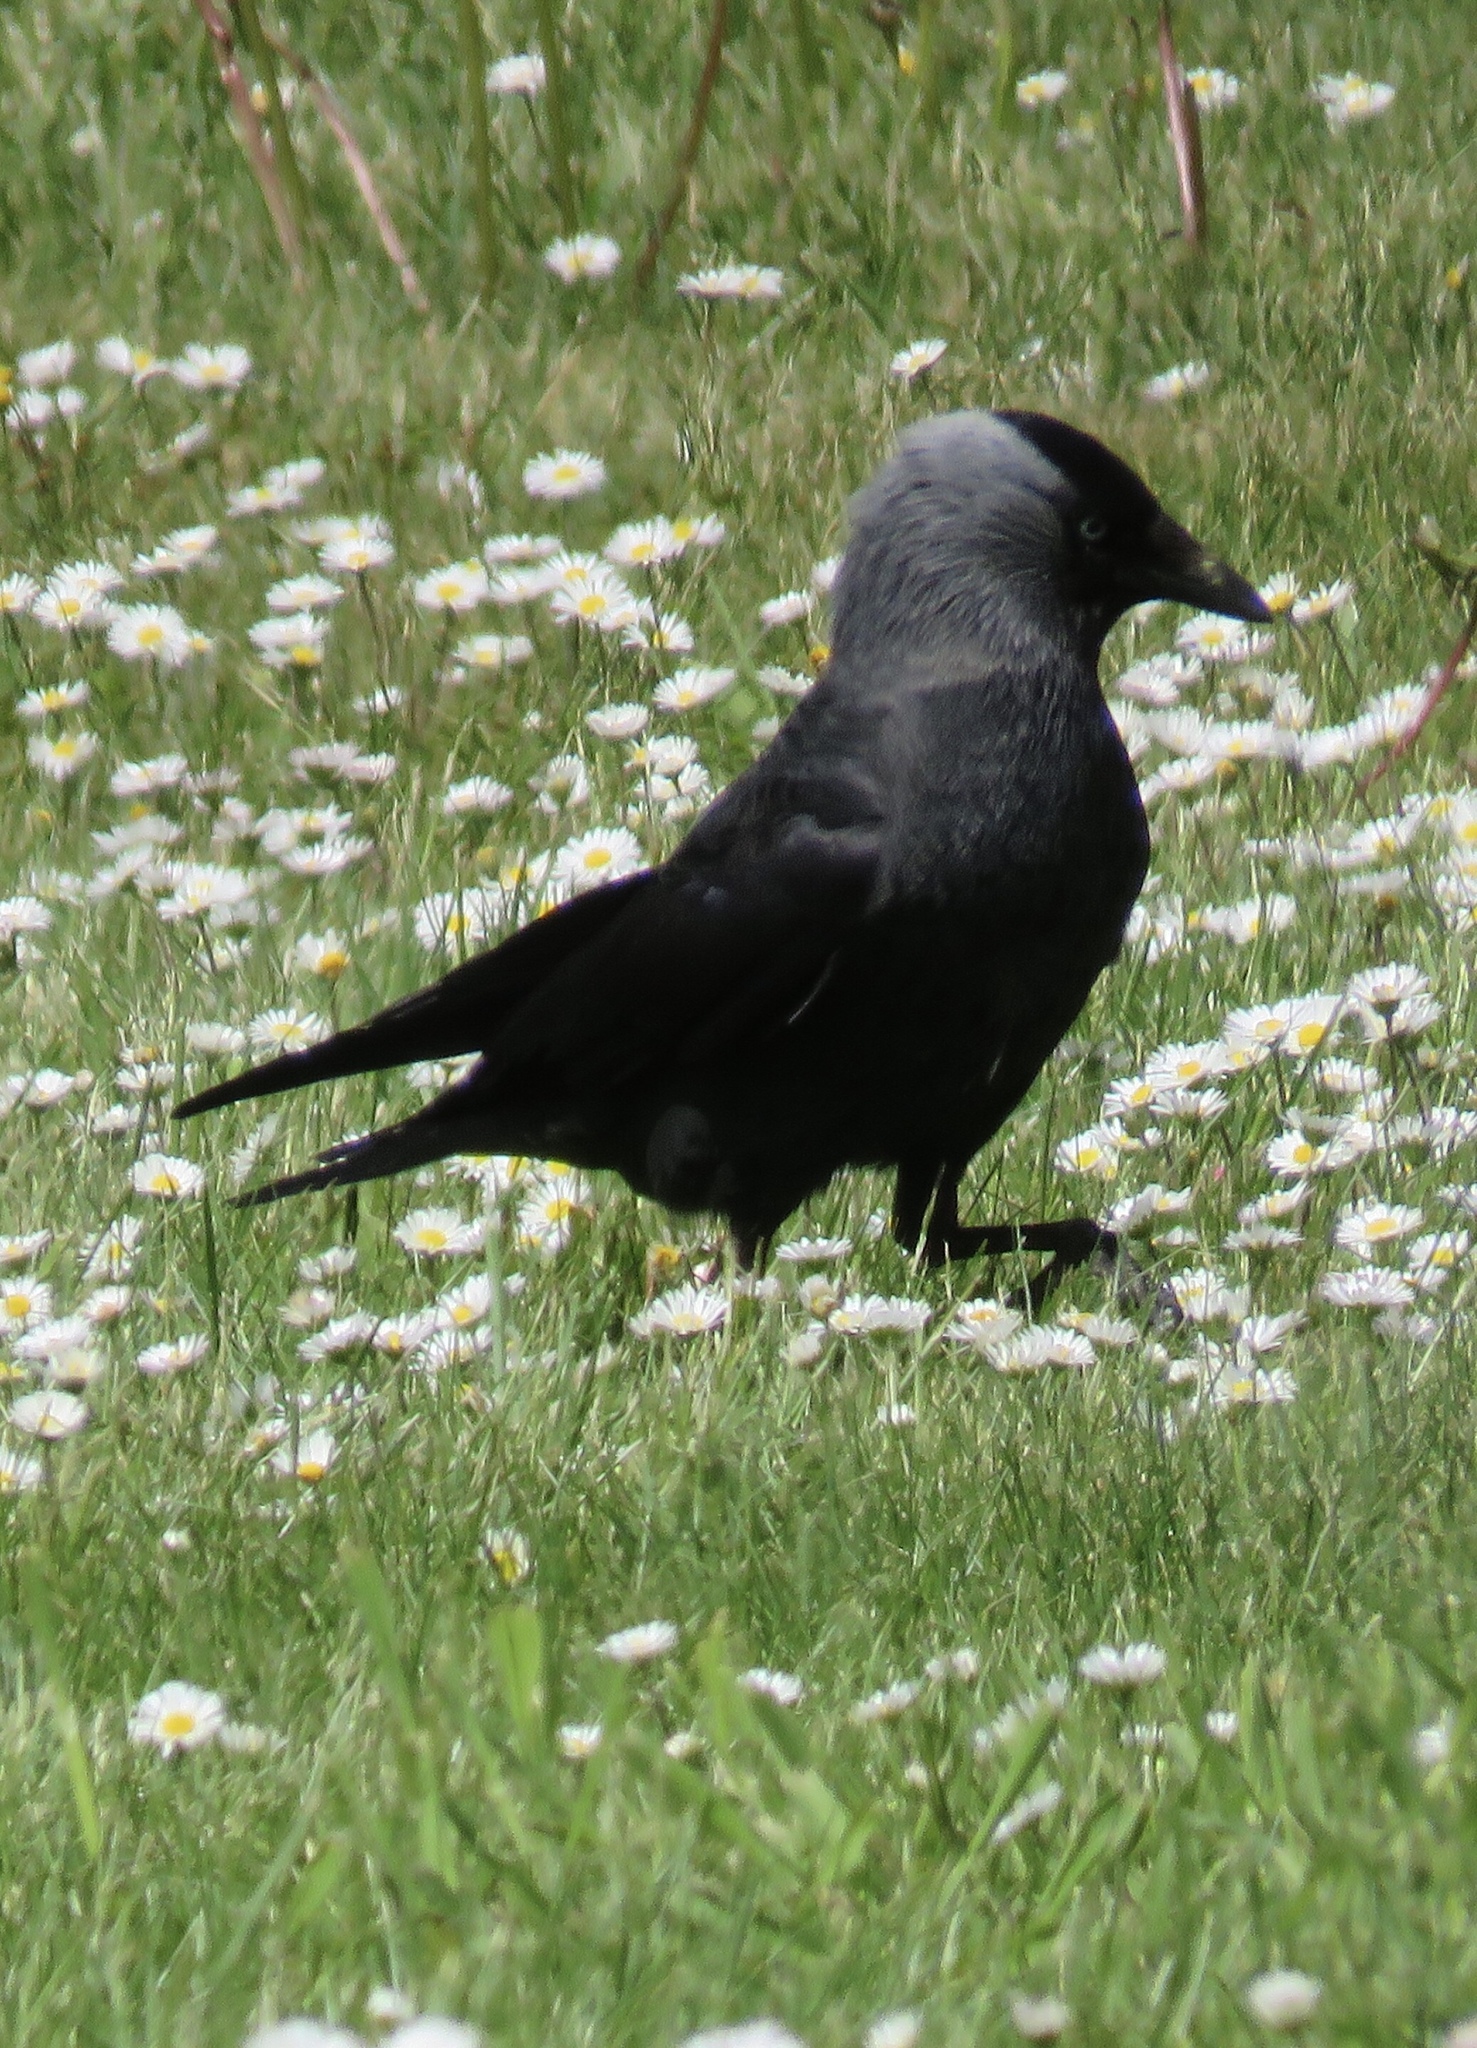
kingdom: Animalia
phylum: Chordata
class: Aves
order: Passeriformes
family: Corvidae
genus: Coloeus
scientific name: Coloeus monedula
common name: Western jackdaw
